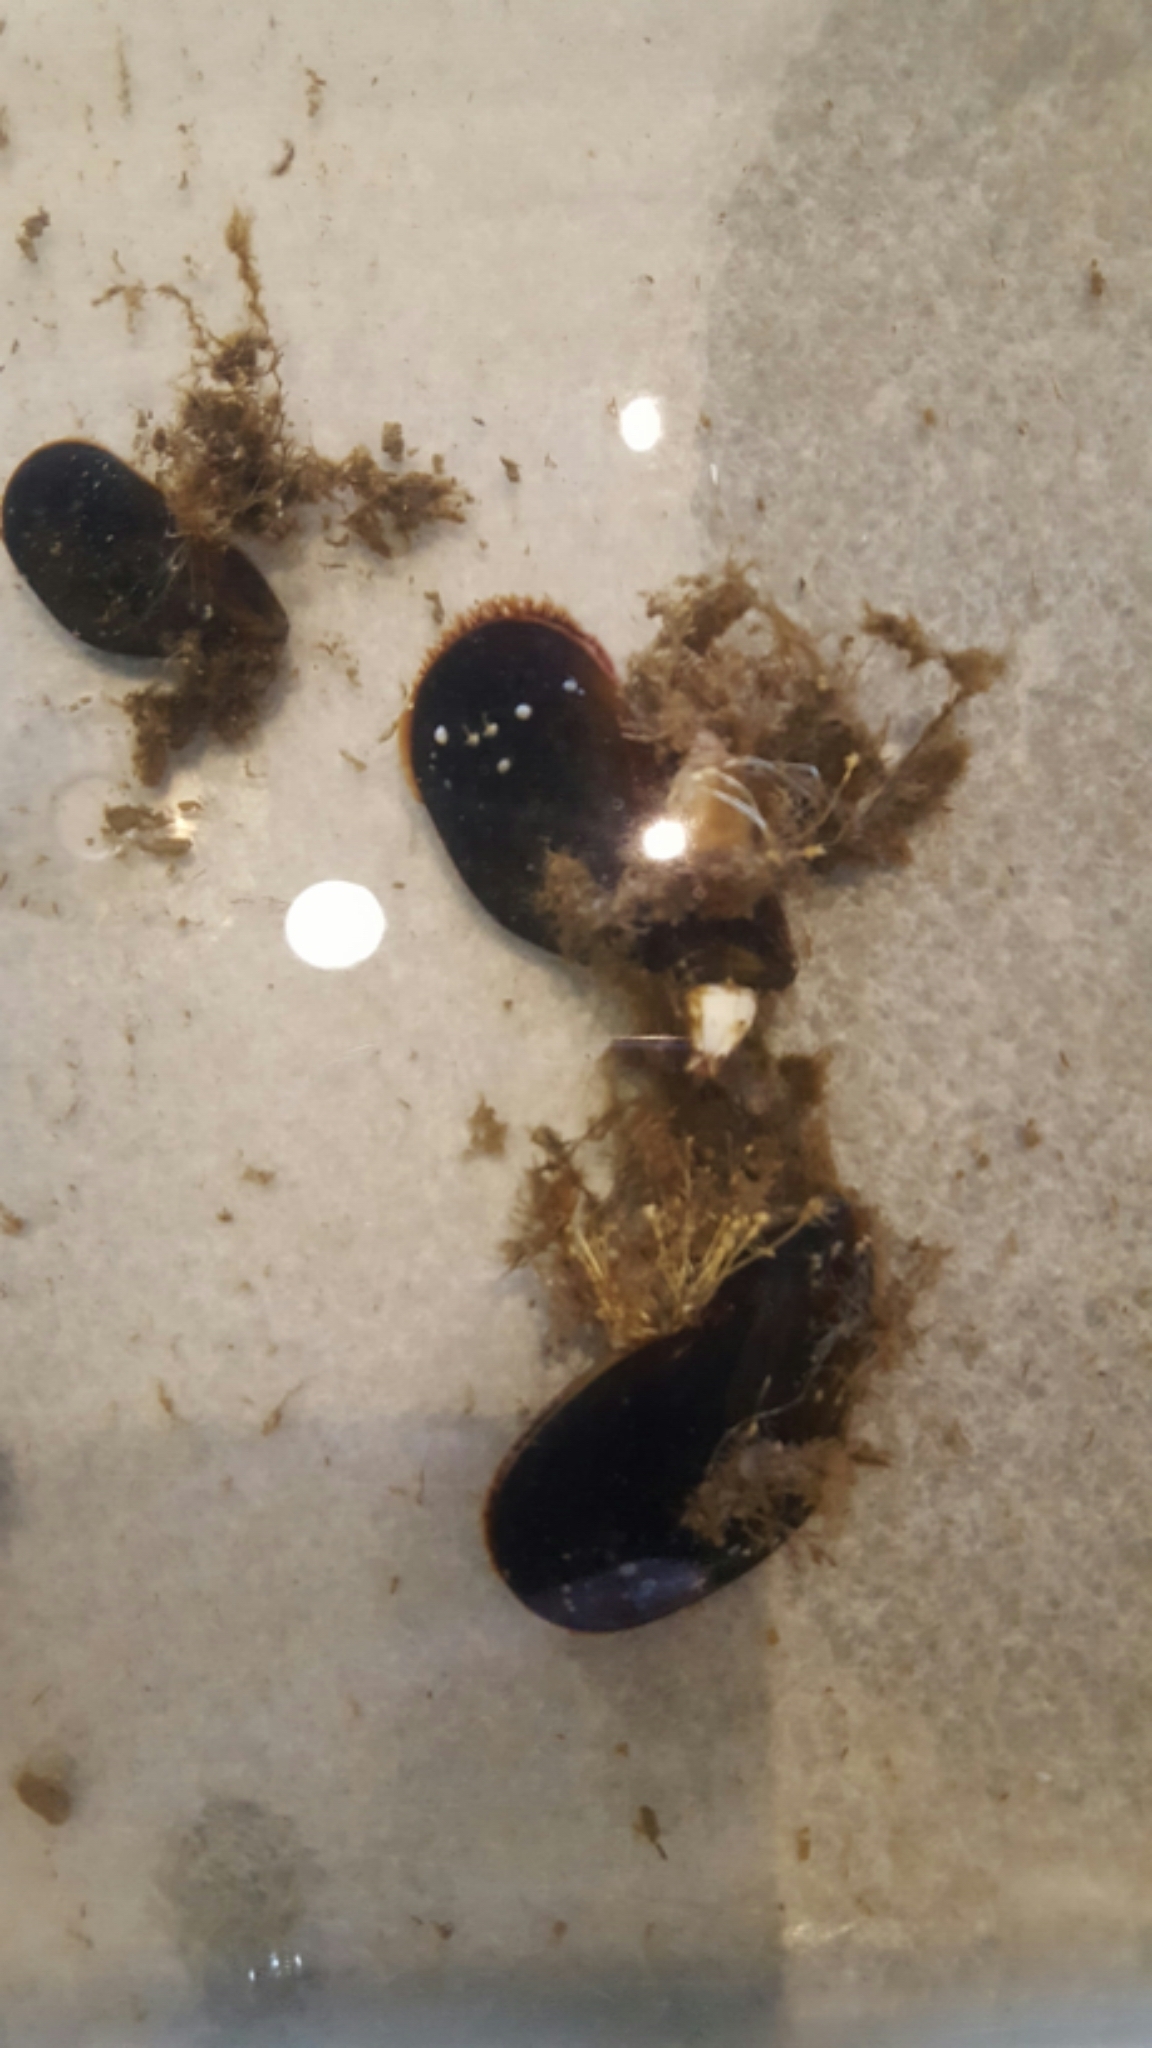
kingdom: Animalia
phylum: Mollusca
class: Bivalvia
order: Mytilida
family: Mytilidae
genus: Mytilus
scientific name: Mytilus edulis
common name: Blue mussel
